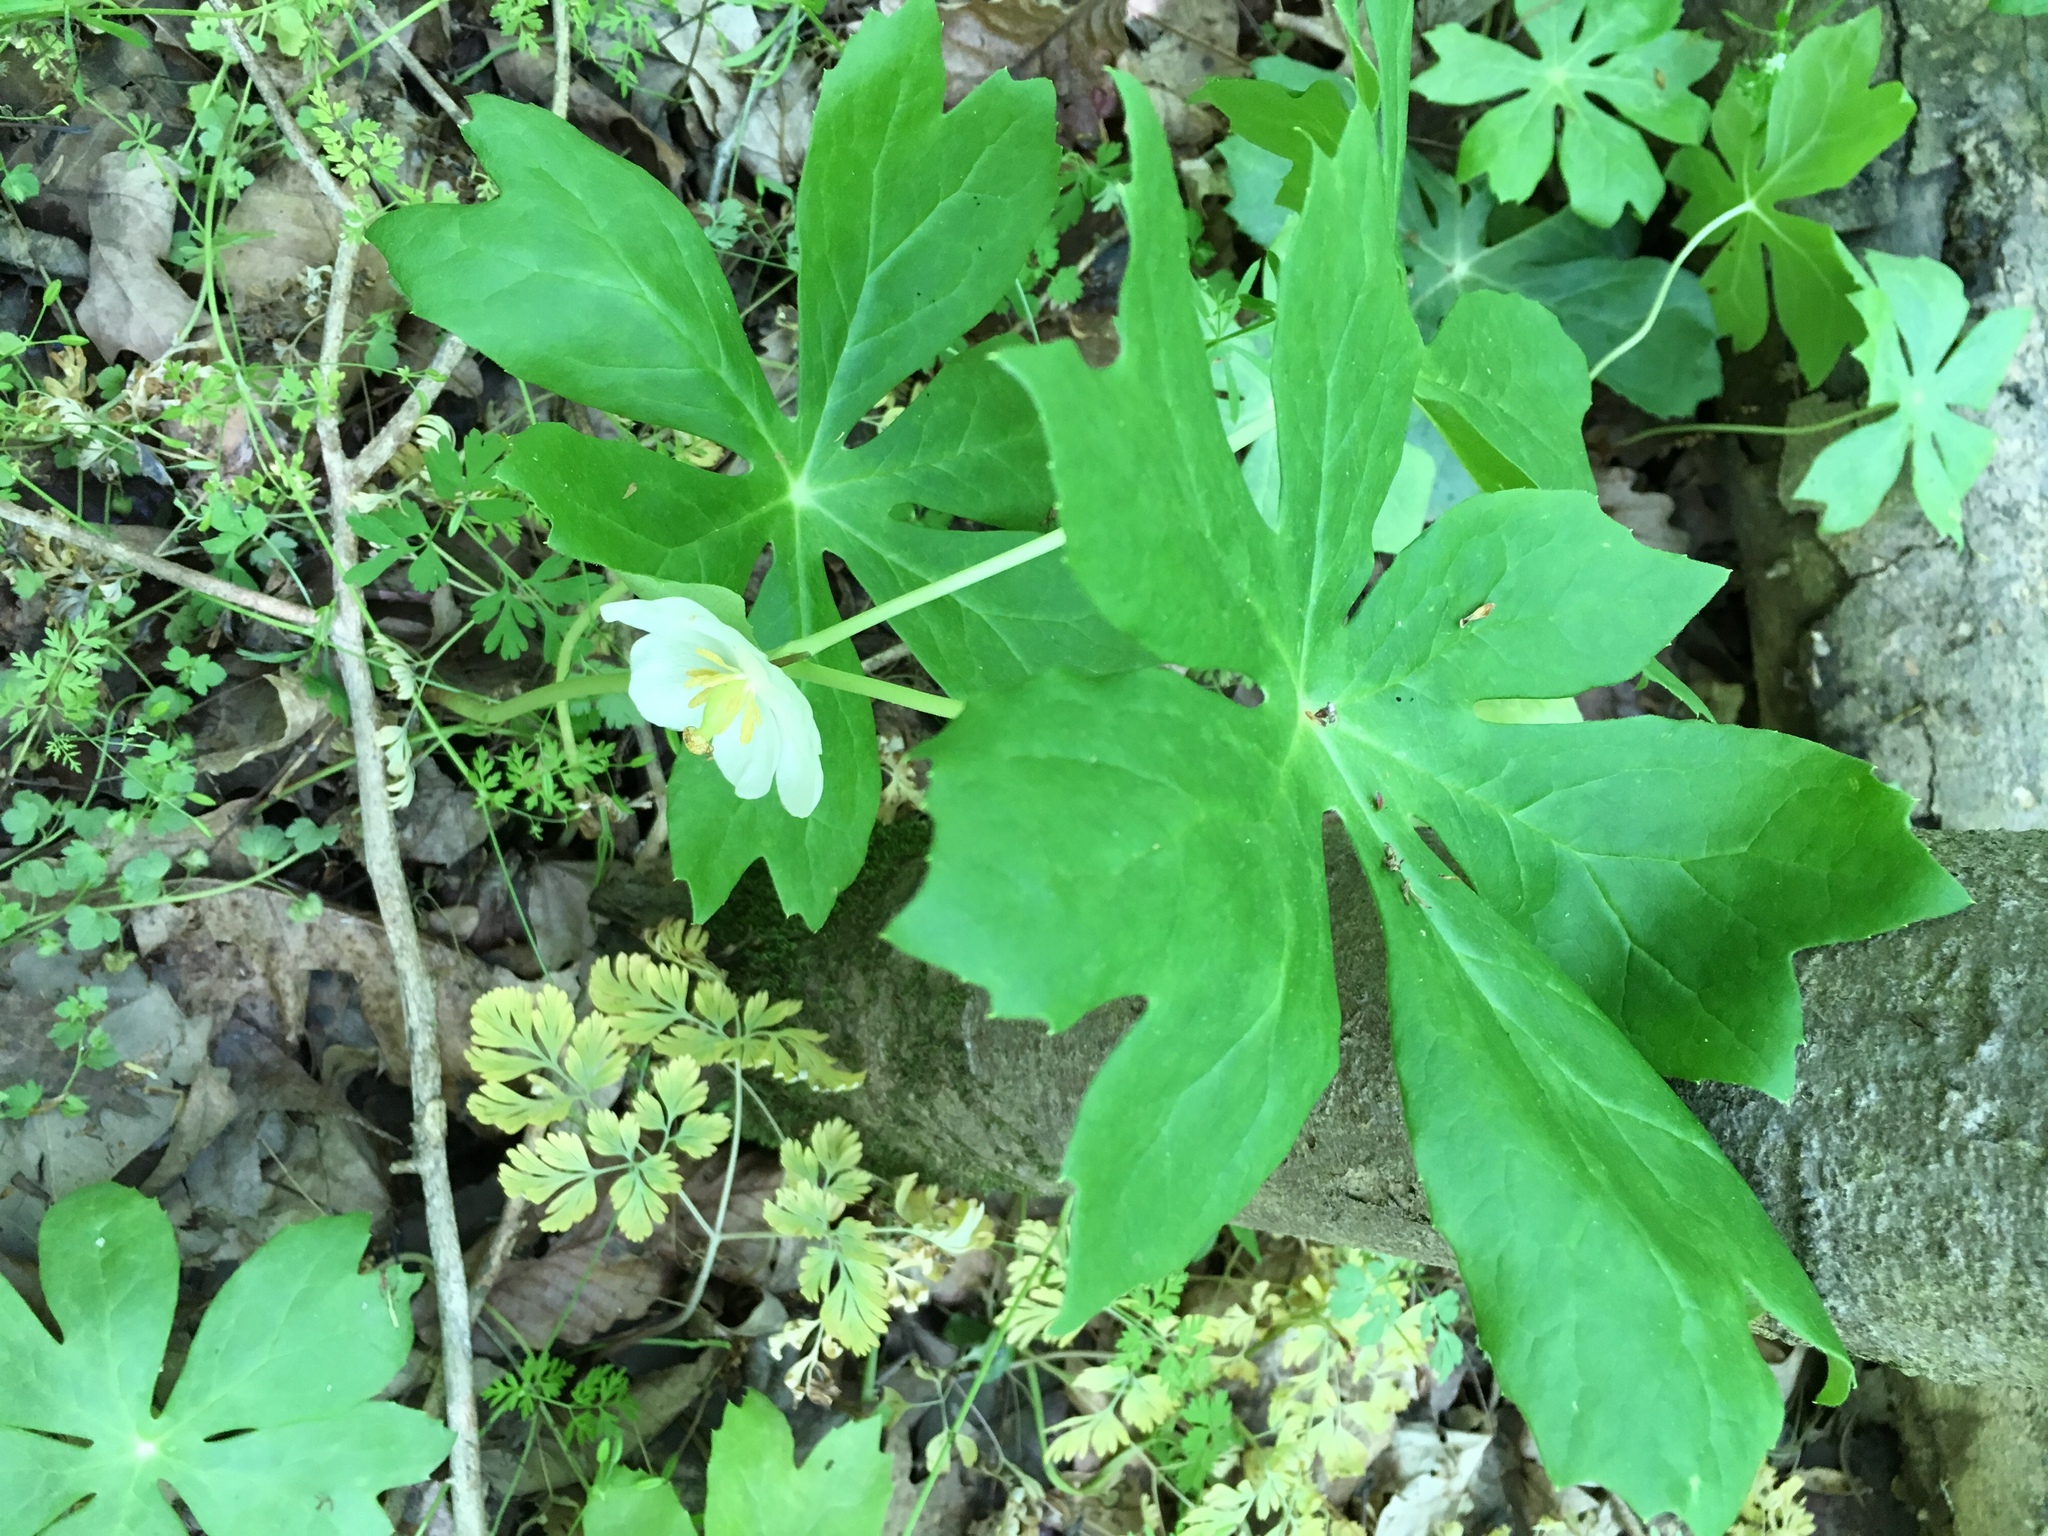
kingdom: Plantae
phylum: Tracheophyta
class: Magnoliopsida
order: Ranunculales
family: Berberidaceae
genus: Podophyllum
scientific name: Podophyllum peltatum
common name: Wild mandrake
